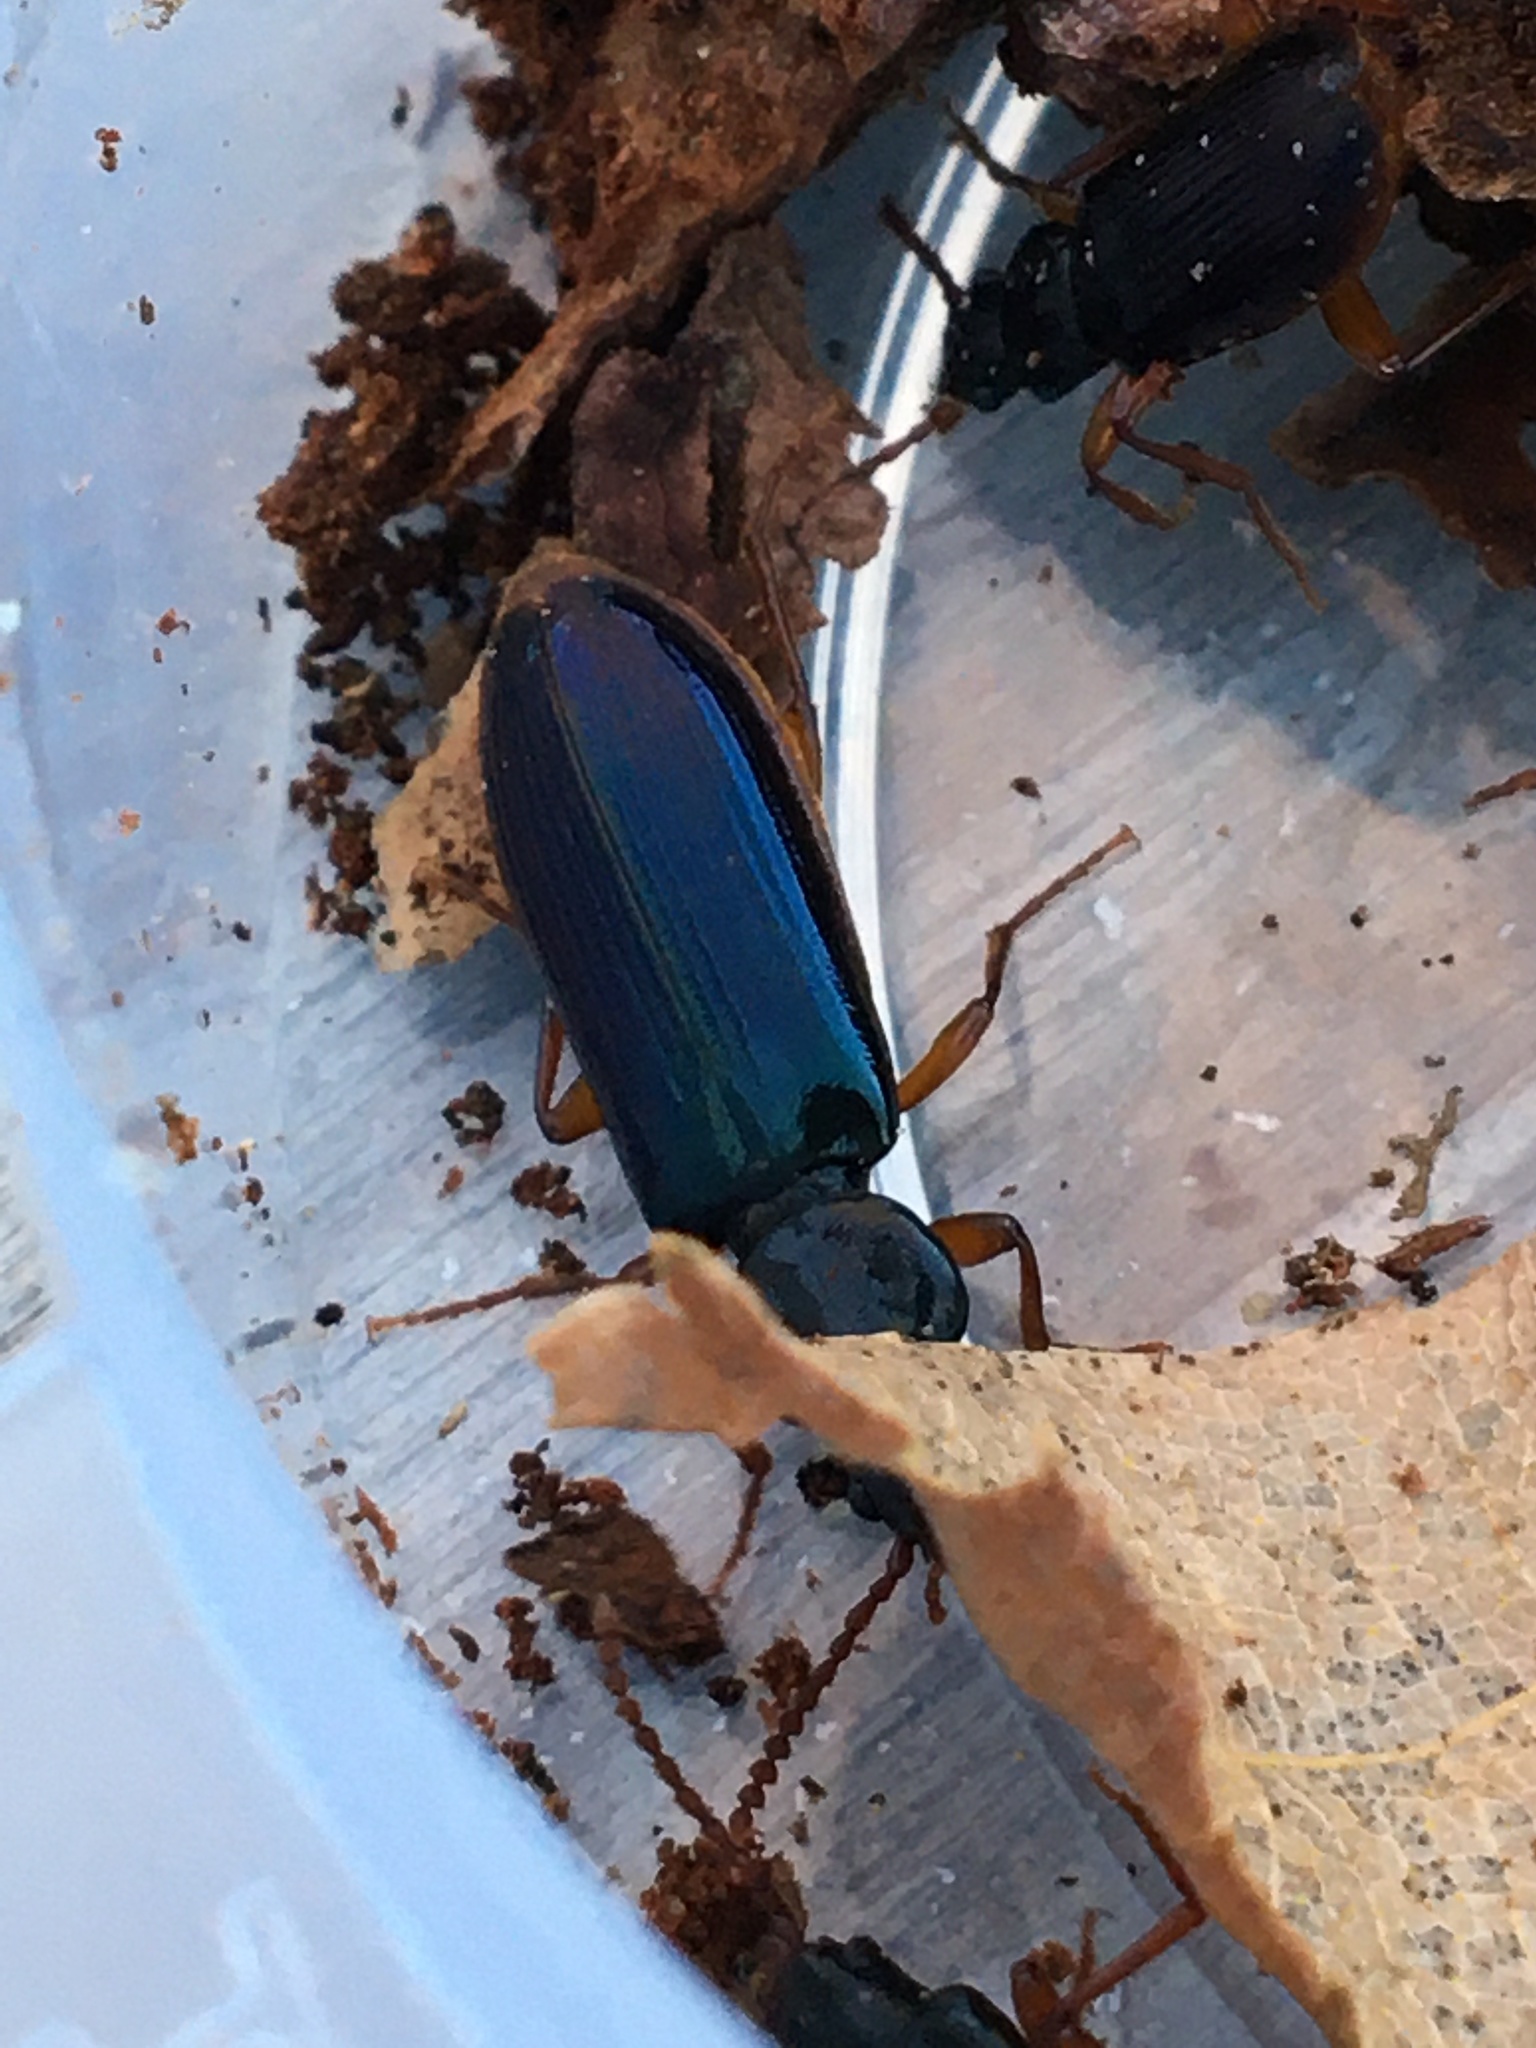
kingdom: Animalia
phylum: Arthropoda
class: Insecta
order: Coleoptera
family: Pythidae
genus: Pytho
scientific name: Pytho americanus
